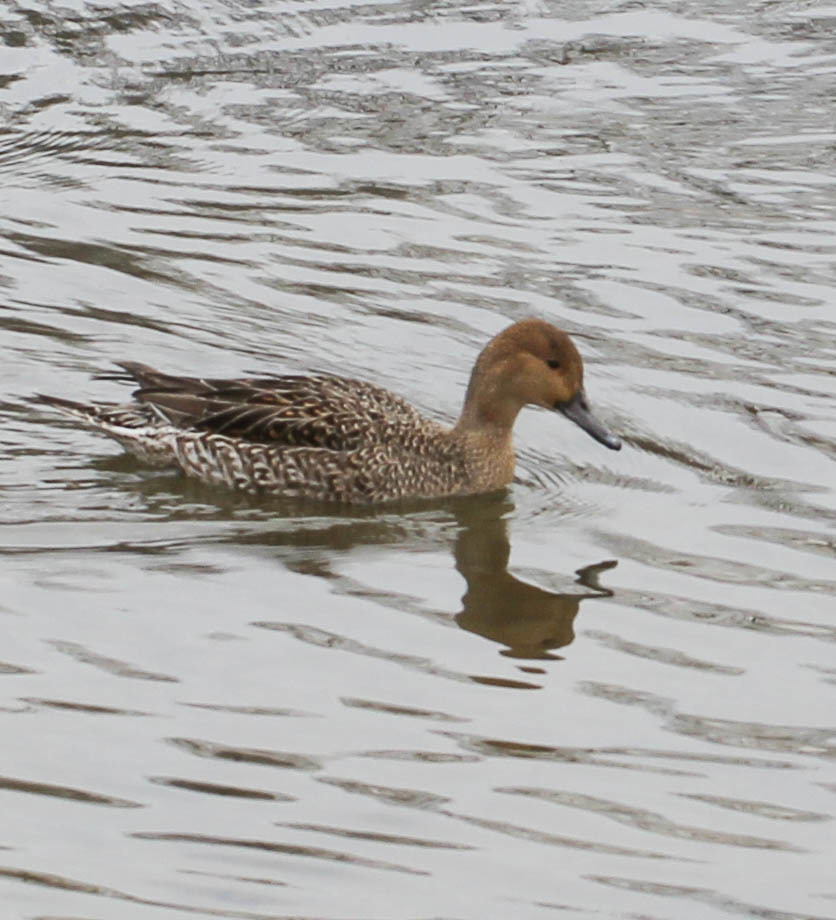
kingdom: Animalia
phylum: Chordata
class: Aves
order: Anseriformes
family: Anatidae
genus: Anas
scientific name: Anas acuta
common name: Northern pintail
